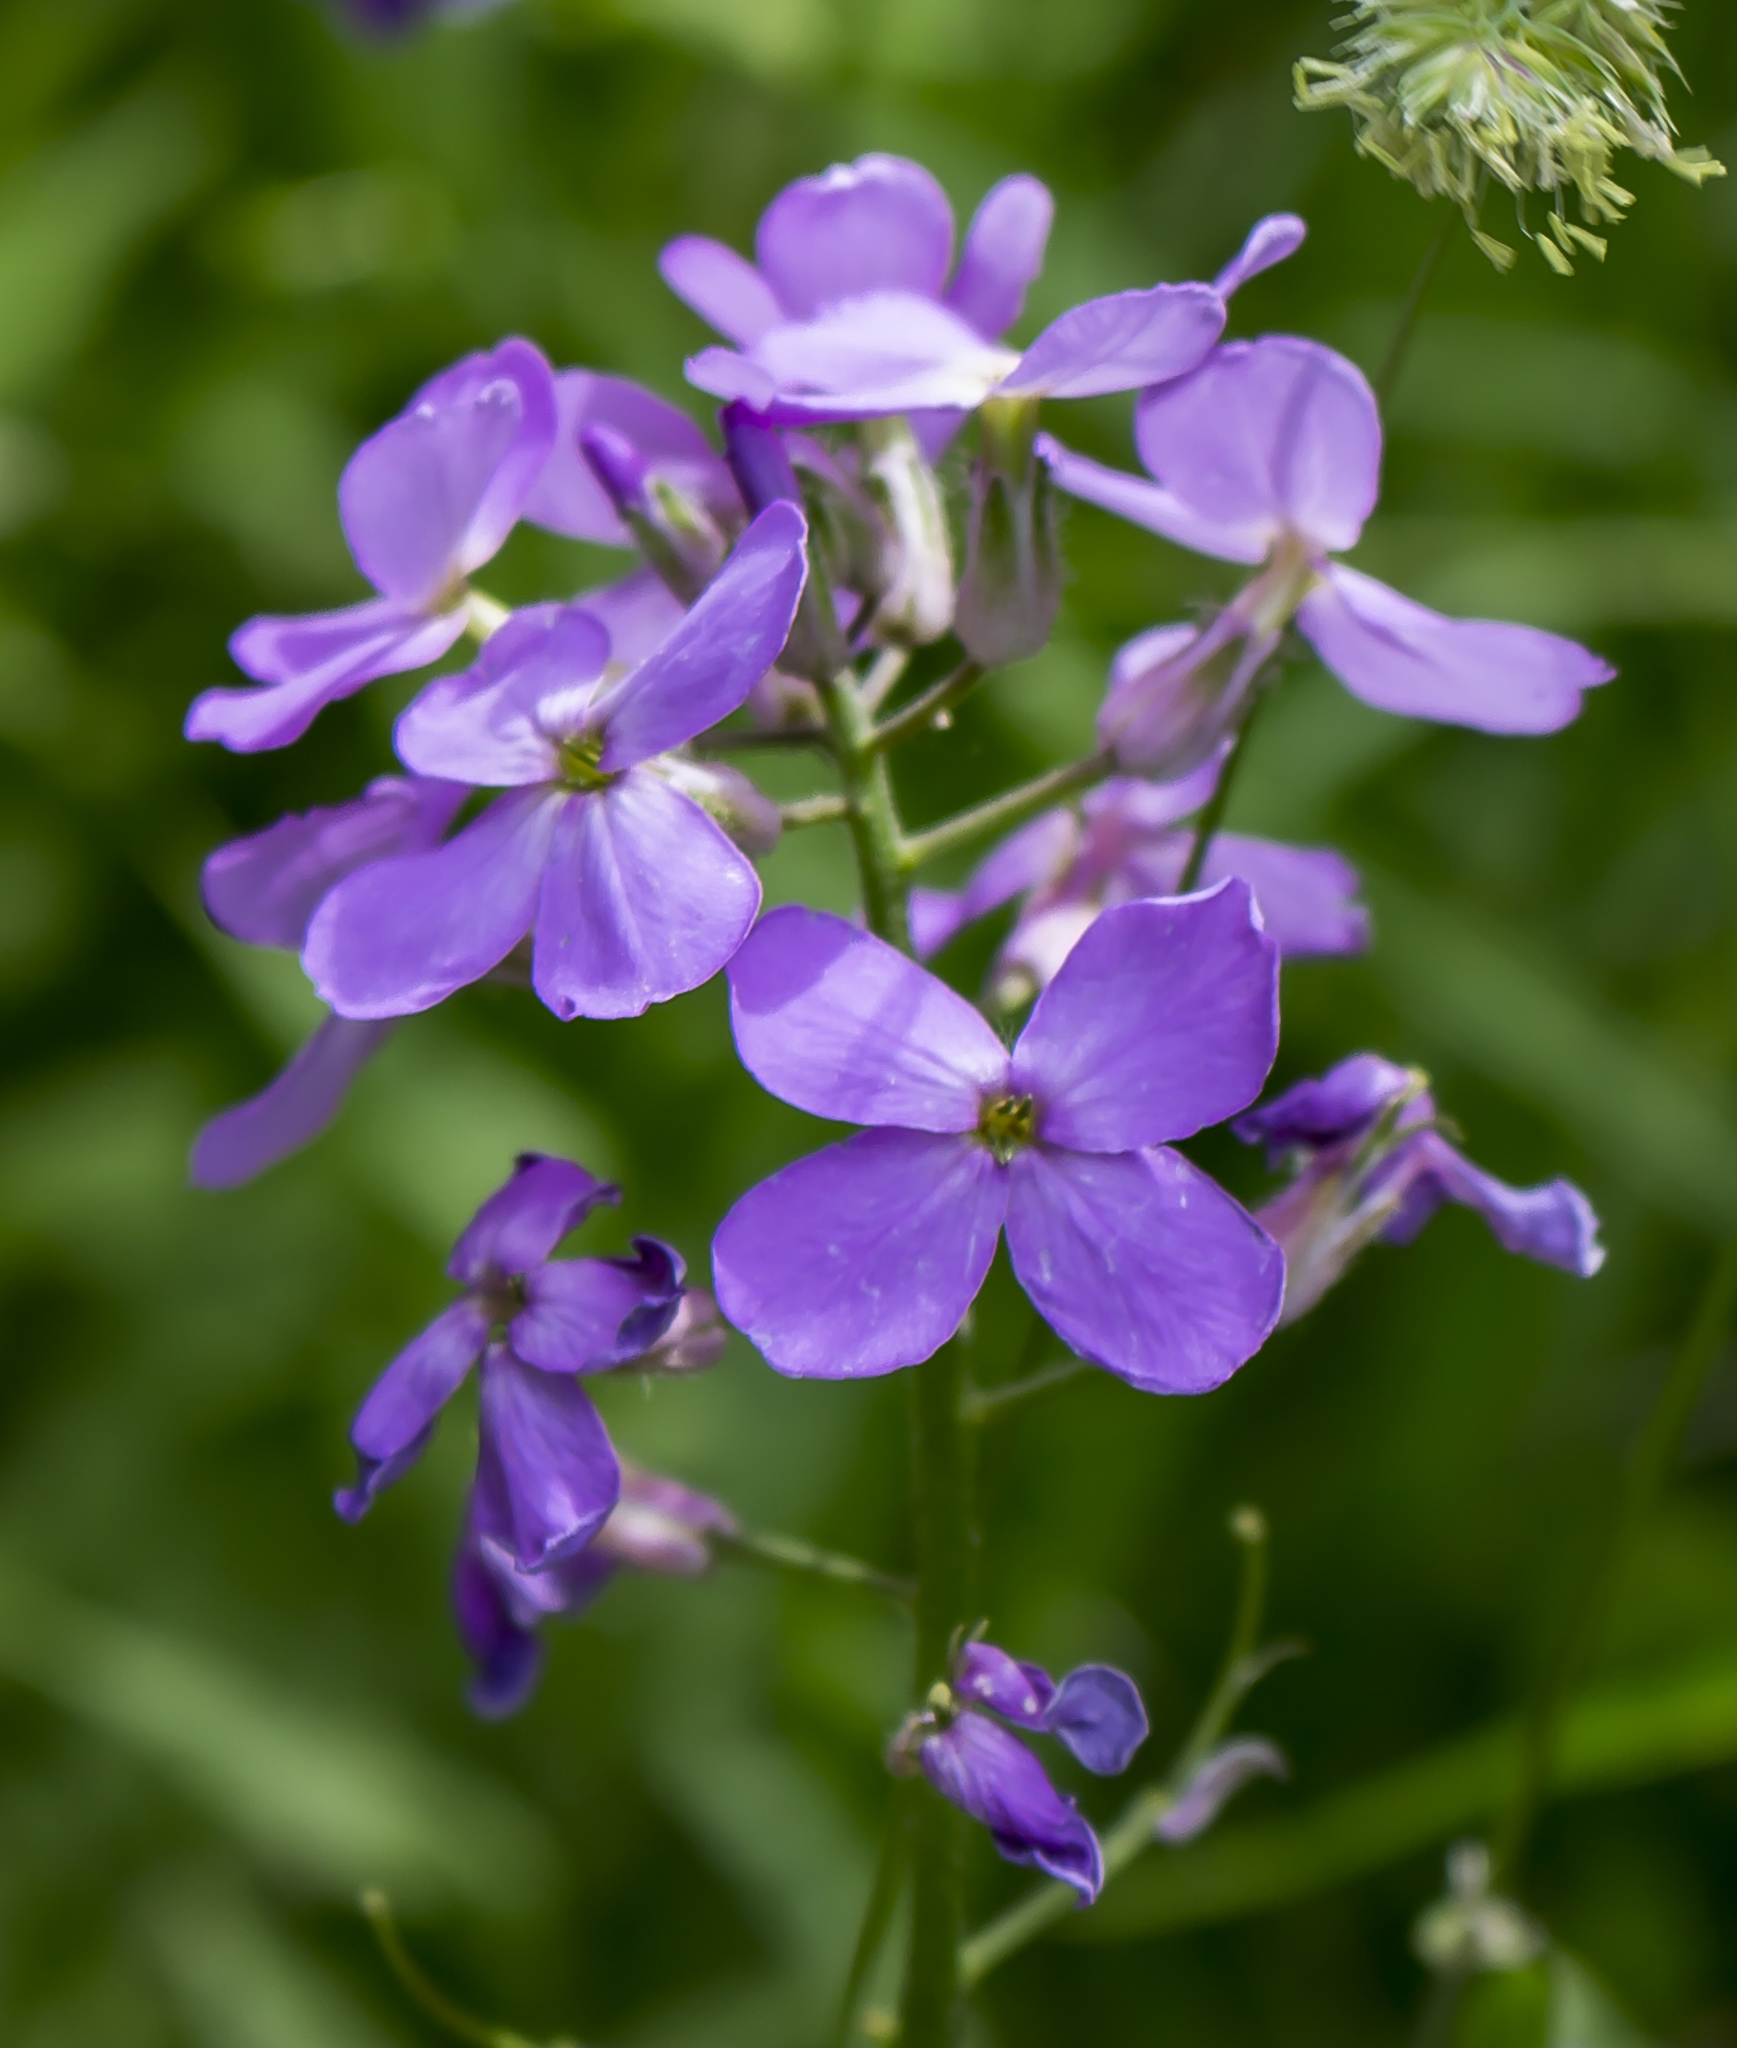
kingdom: Plantae
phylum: Tracheophyta
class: Magnoliopsida
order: Brassicales
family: Brassicaceae
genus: Hesperis
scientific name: Hesperis matronalis
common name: Dame's-violet
